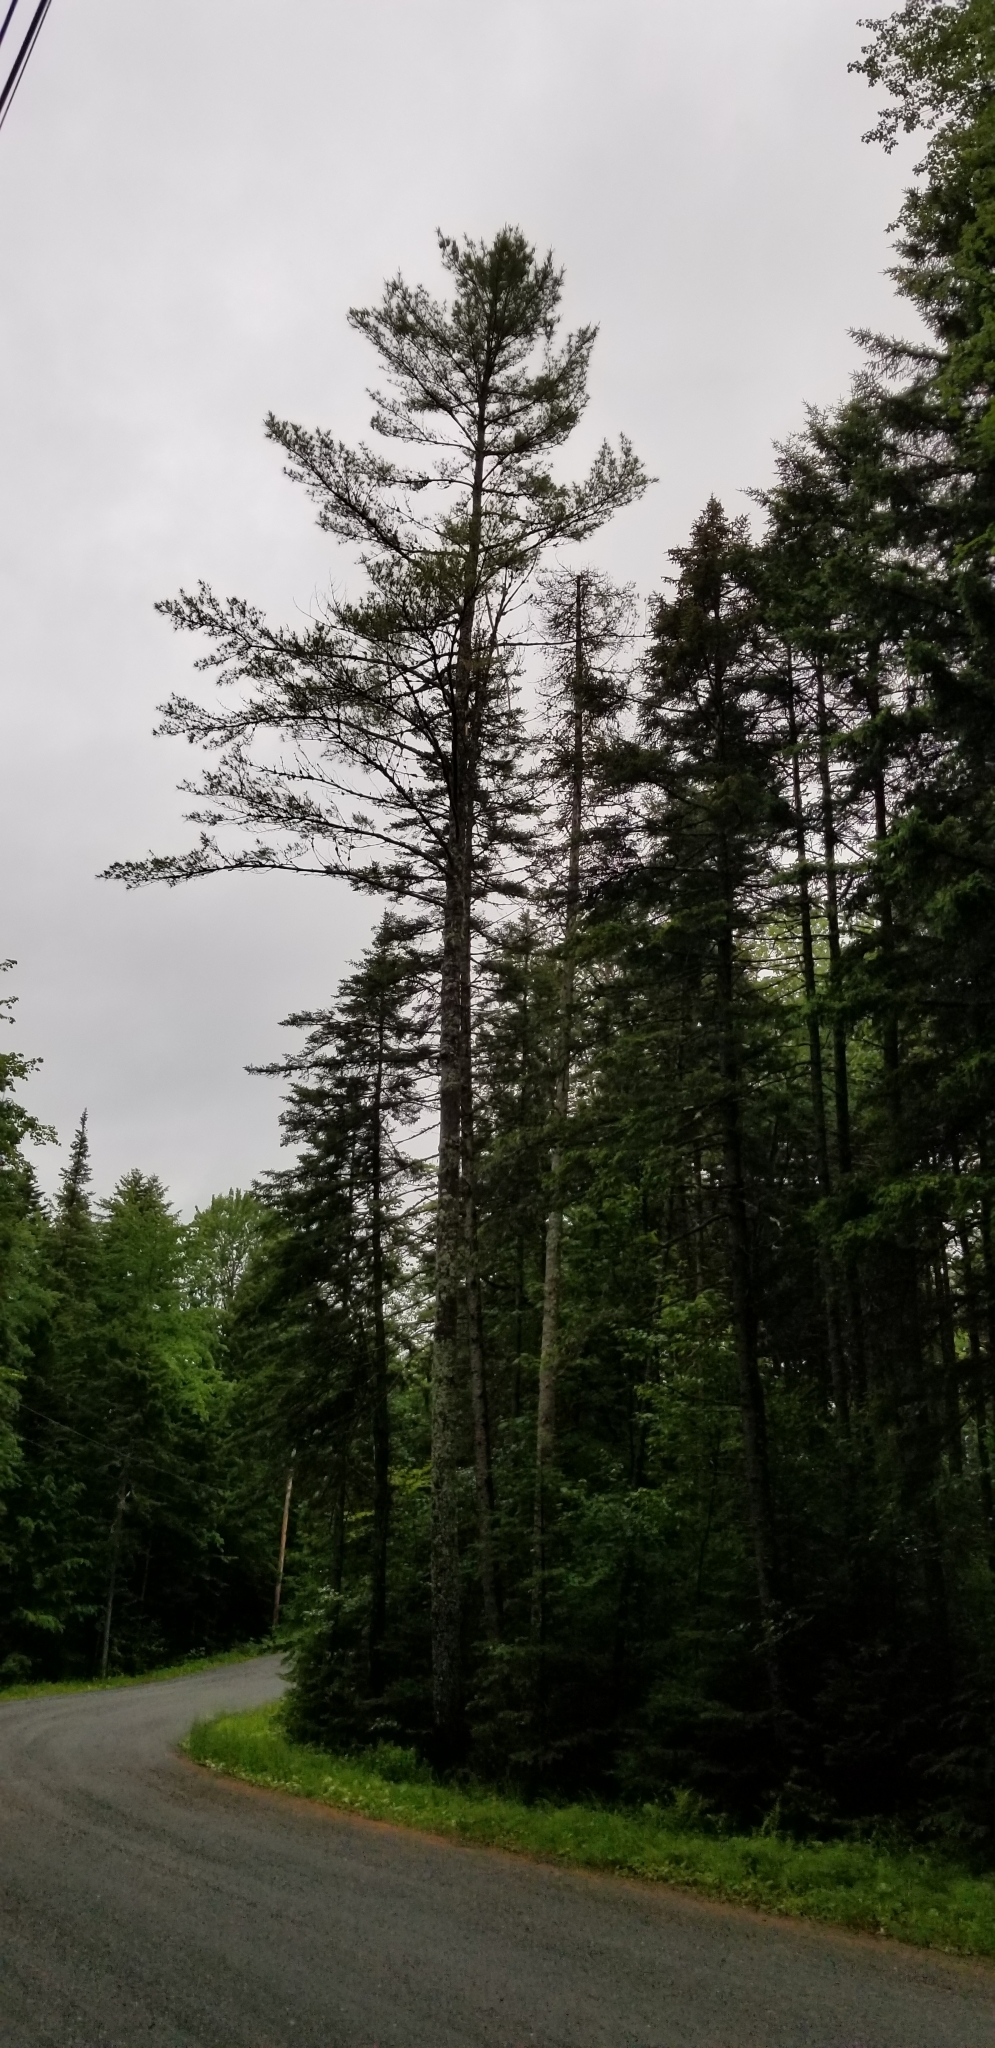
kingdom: Plantae
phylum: Tracheophyta
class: Pinopsida
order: Pinales
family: Pinaceae
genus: Pinus
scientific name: Pinus strobus
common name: Weymouth pine
